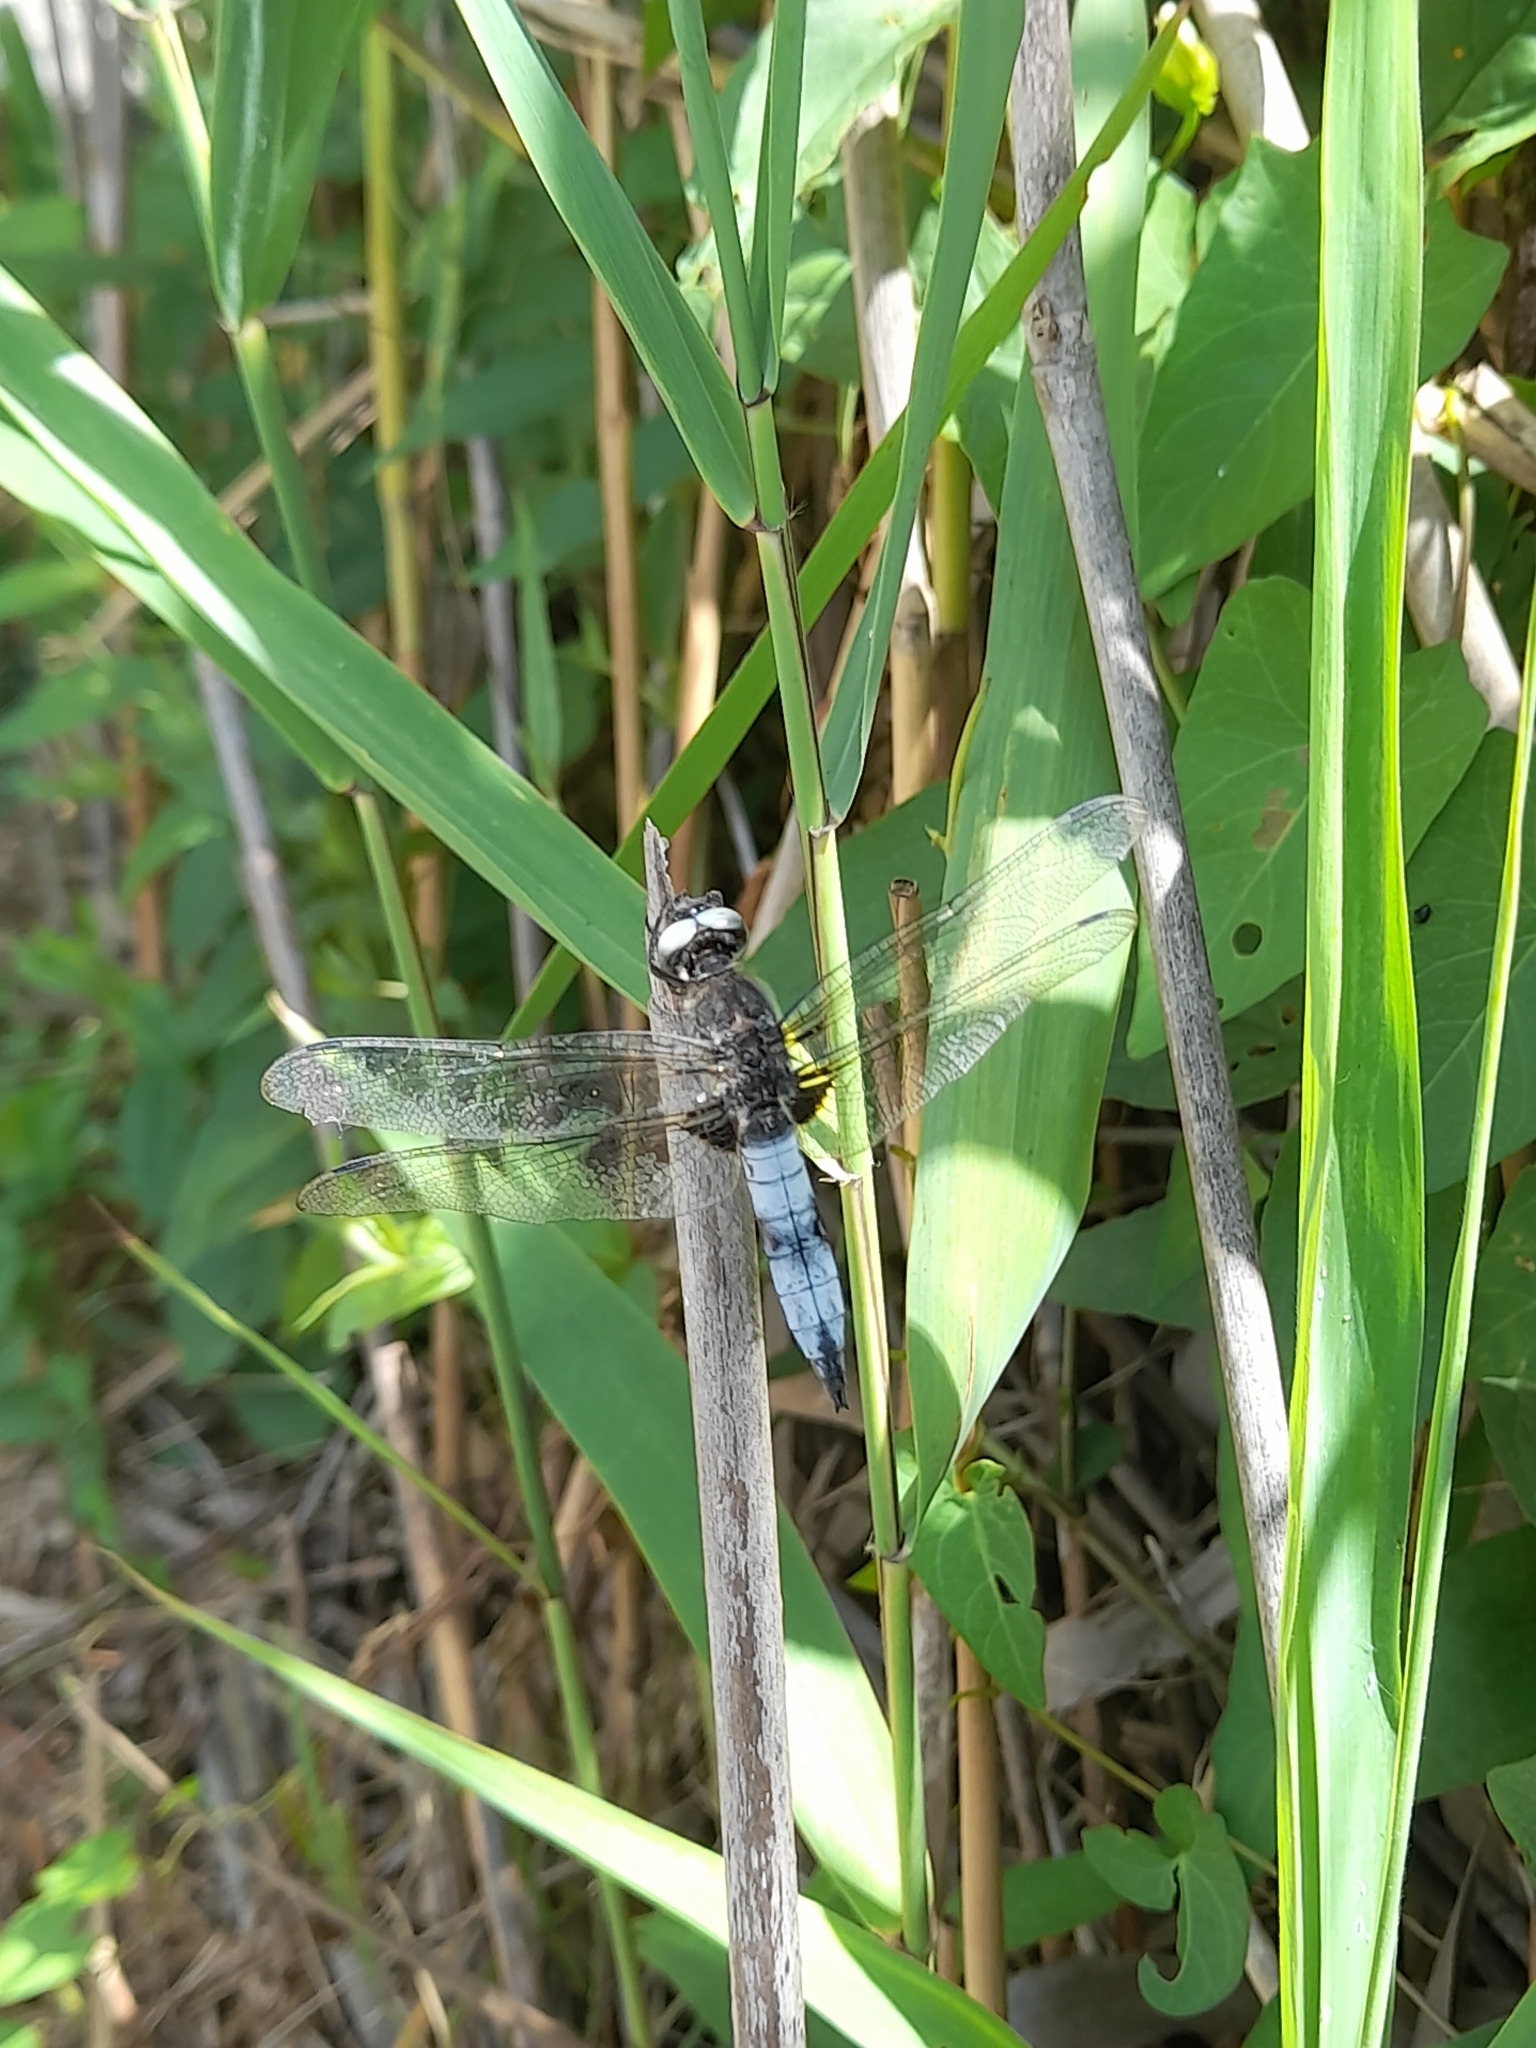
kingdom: Animalia
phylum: Arthropoda
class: Insecta
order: Odonata
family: Libellulidae
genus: Libellula
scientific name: Libellula fulva
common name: Blue chaser
